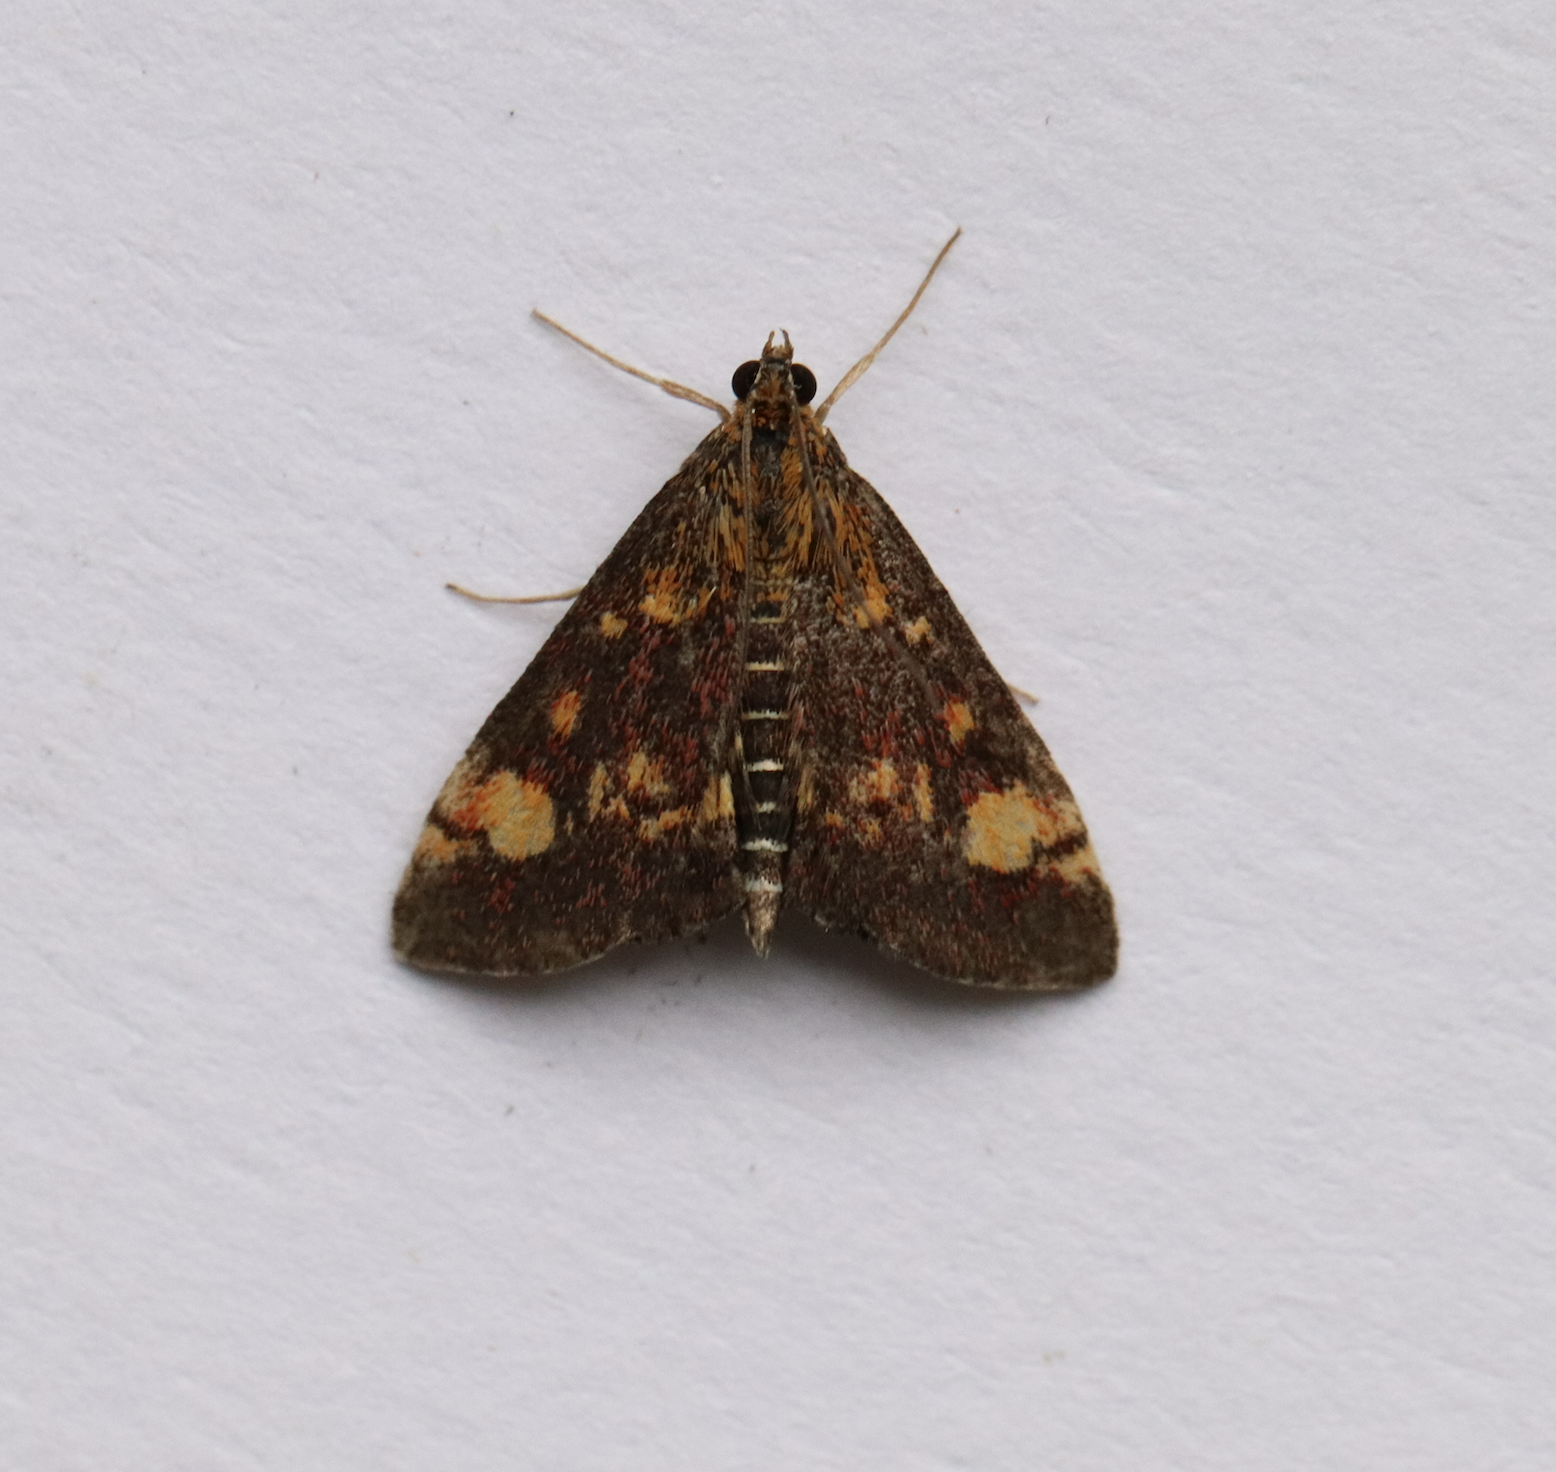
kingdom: Animalia
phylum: Arthropoda
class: Insecta
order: Lepidoptera
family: Crambidae
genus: Pyrausta
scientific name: Pyrausta aurata
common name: Small purple & gold
